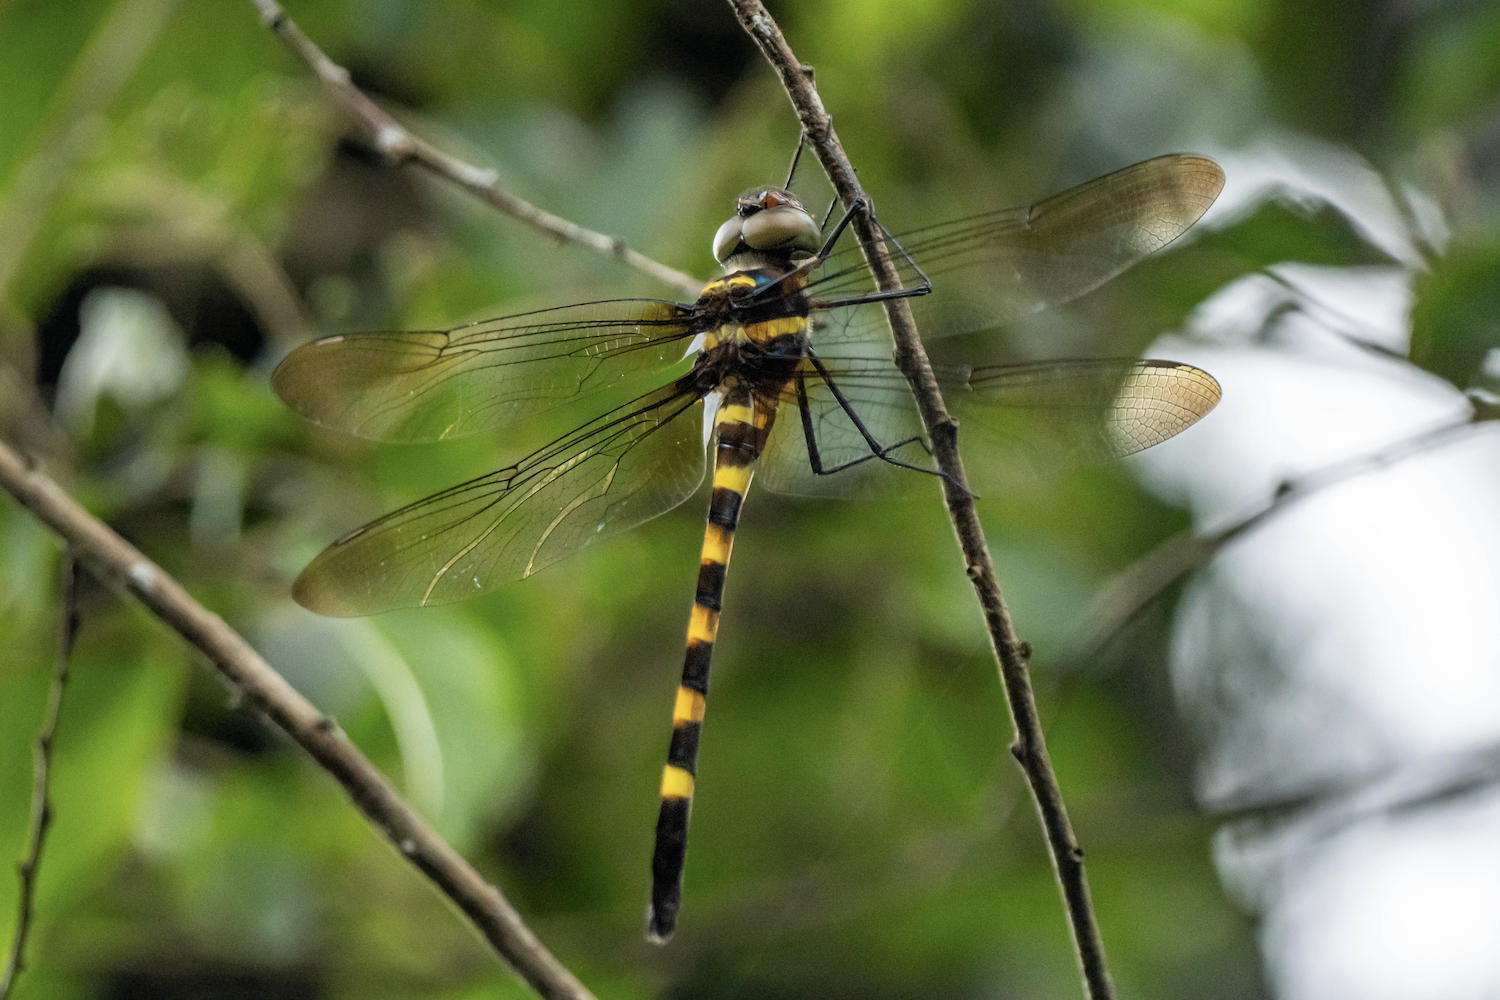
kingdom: Animalia
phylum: Arthropoda
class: Insecta
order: Odonata
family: Macromiidae
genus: Macromia
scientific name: Macromia berlandi
